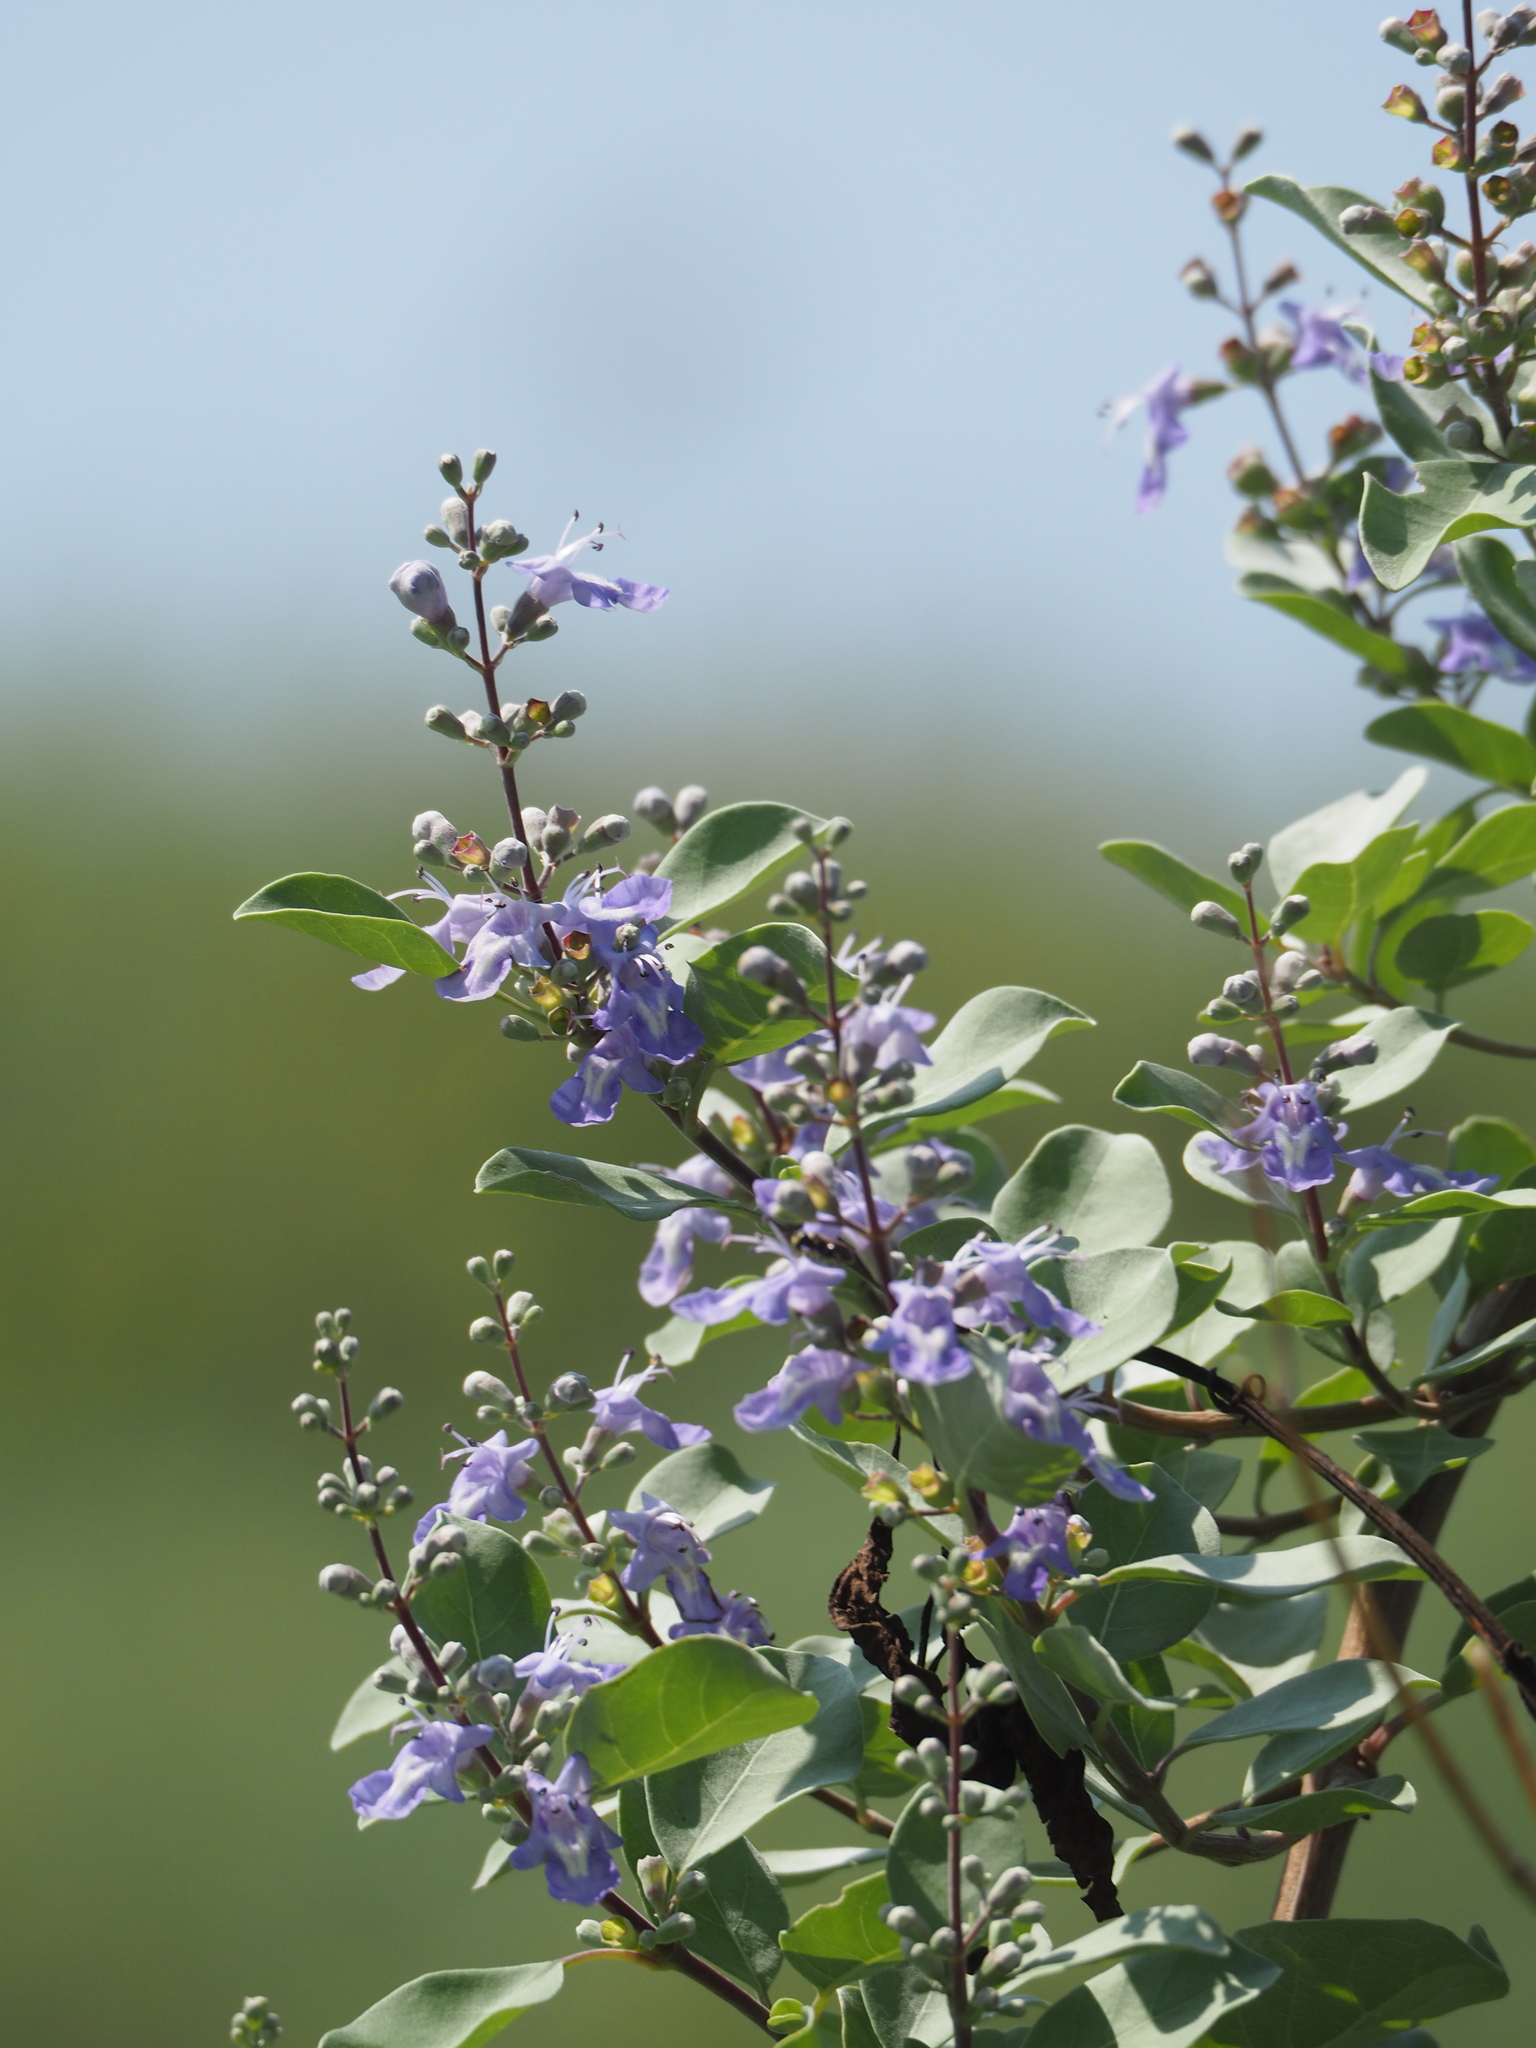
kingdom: Plantae
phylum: Tracheophyta
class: Magnoliopsida
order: Lamiales
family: Lamiaceae
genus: Vitex
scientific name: Vitex rotundifolia
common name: Beach vitex
